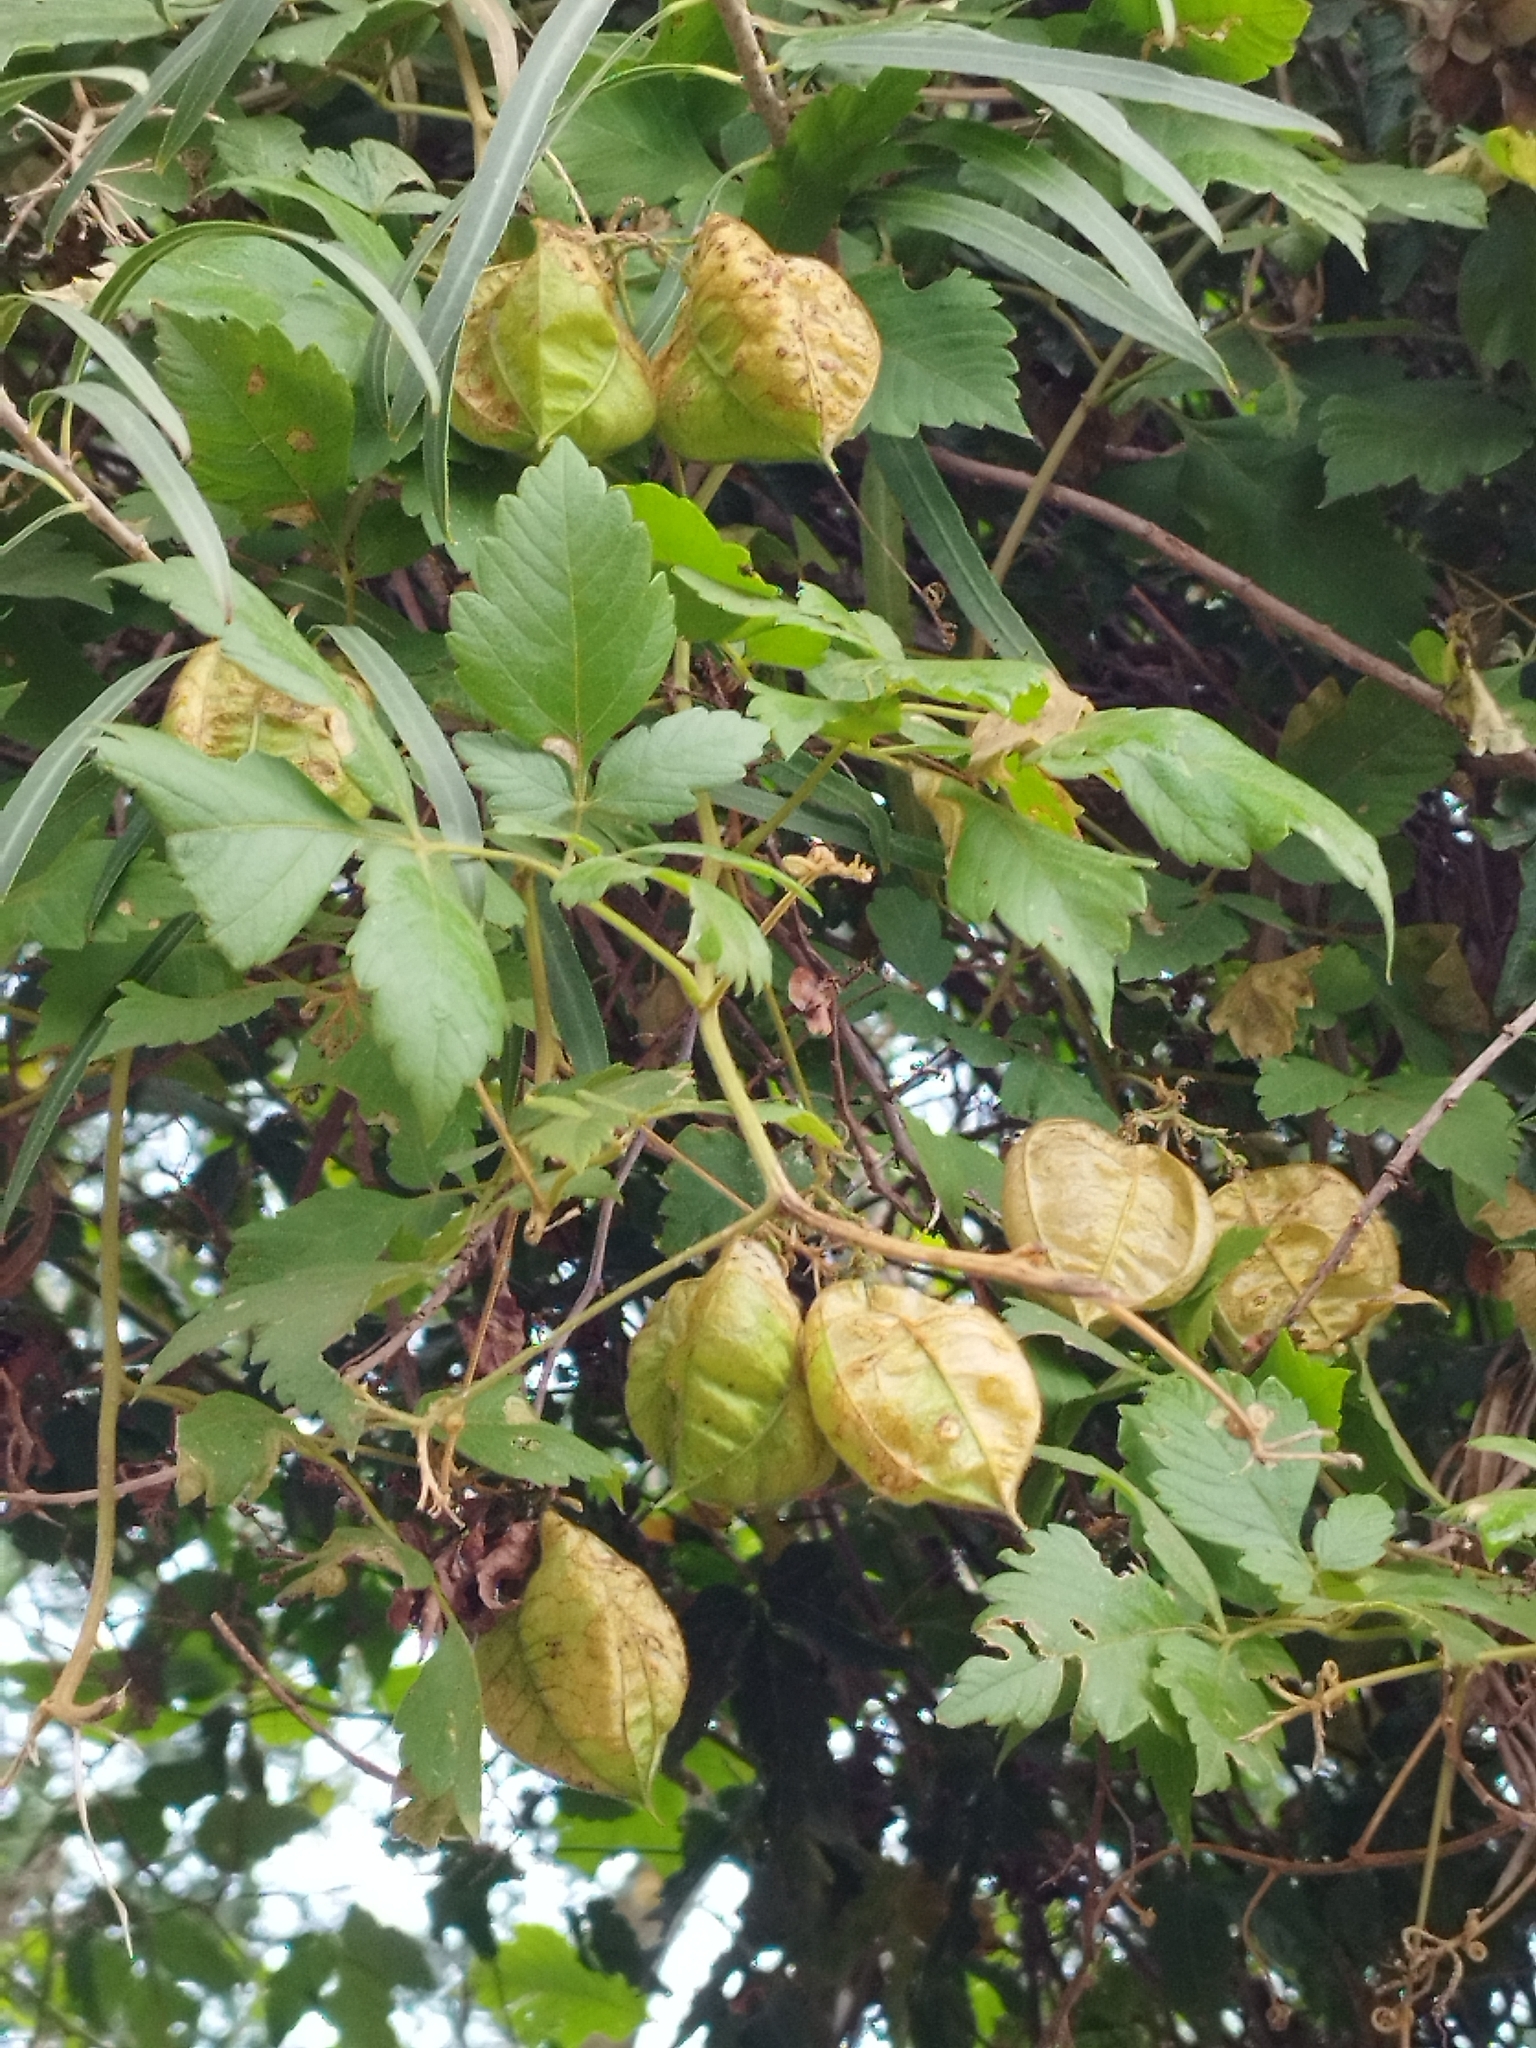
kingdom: Plantae
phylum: Tracheophyta
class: Magnoliopsida
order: Sapindales
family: Sapindaceae
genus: Cardiospermum
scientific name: Cardiospermum grandiflorum
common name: Balloon vine
